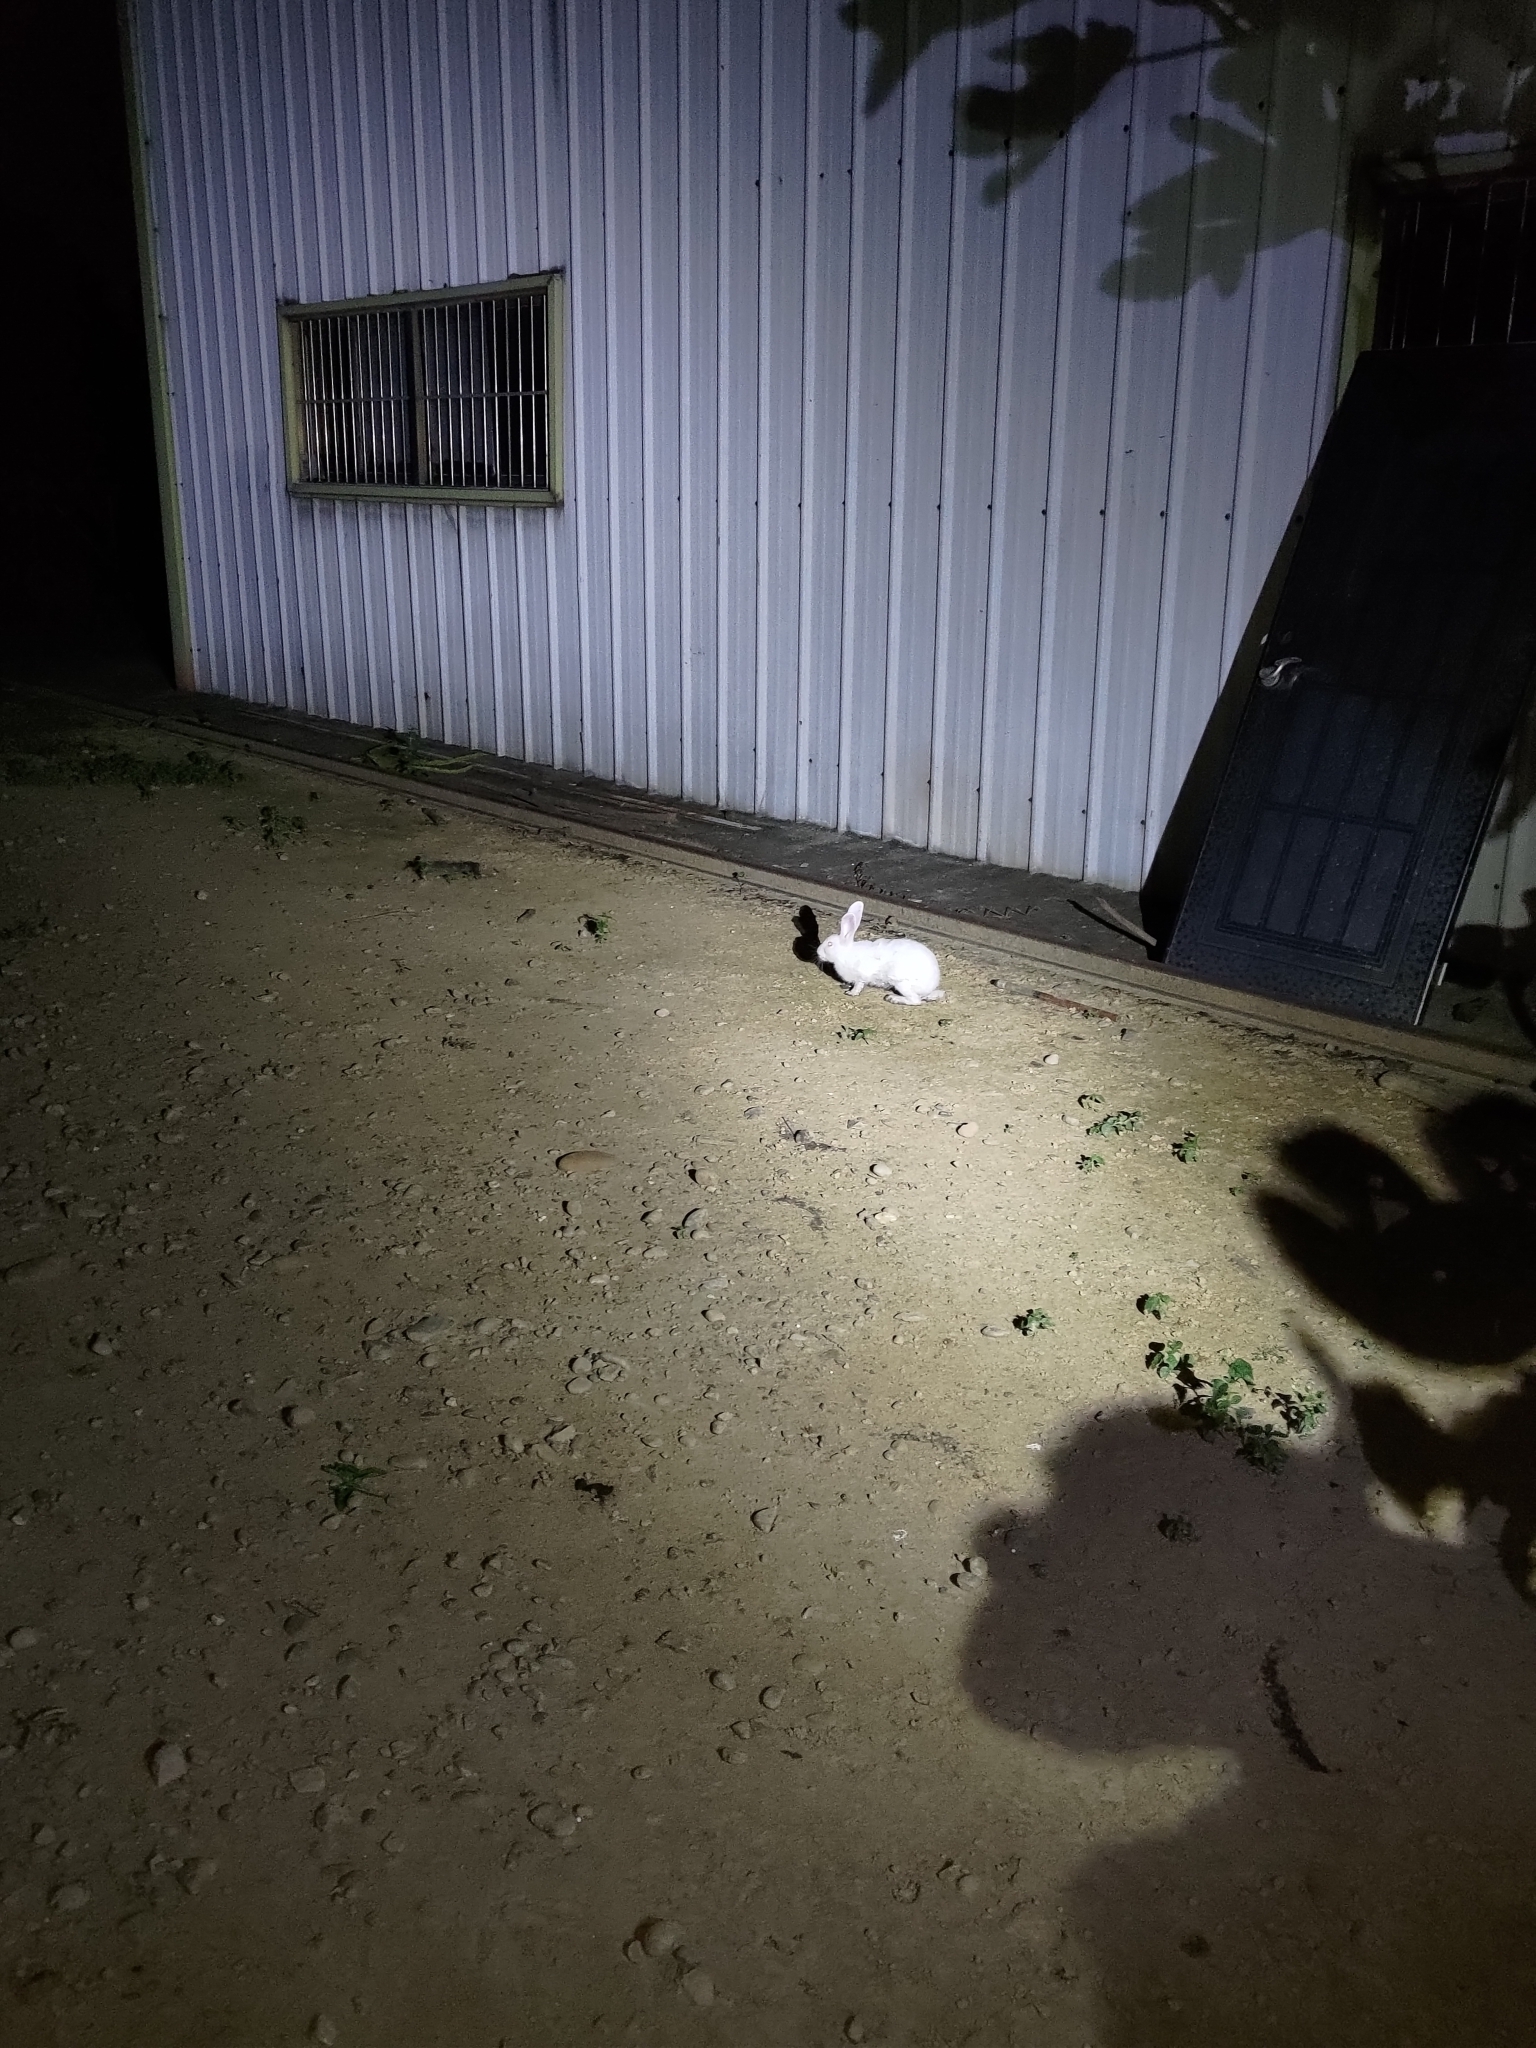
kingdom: Animalia
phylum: Chordata
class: Mammalia
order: Lagomorpha
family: Leporidae
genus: Oryctolagus
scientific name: Oryctolagus cuniculus
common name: European rabbit
